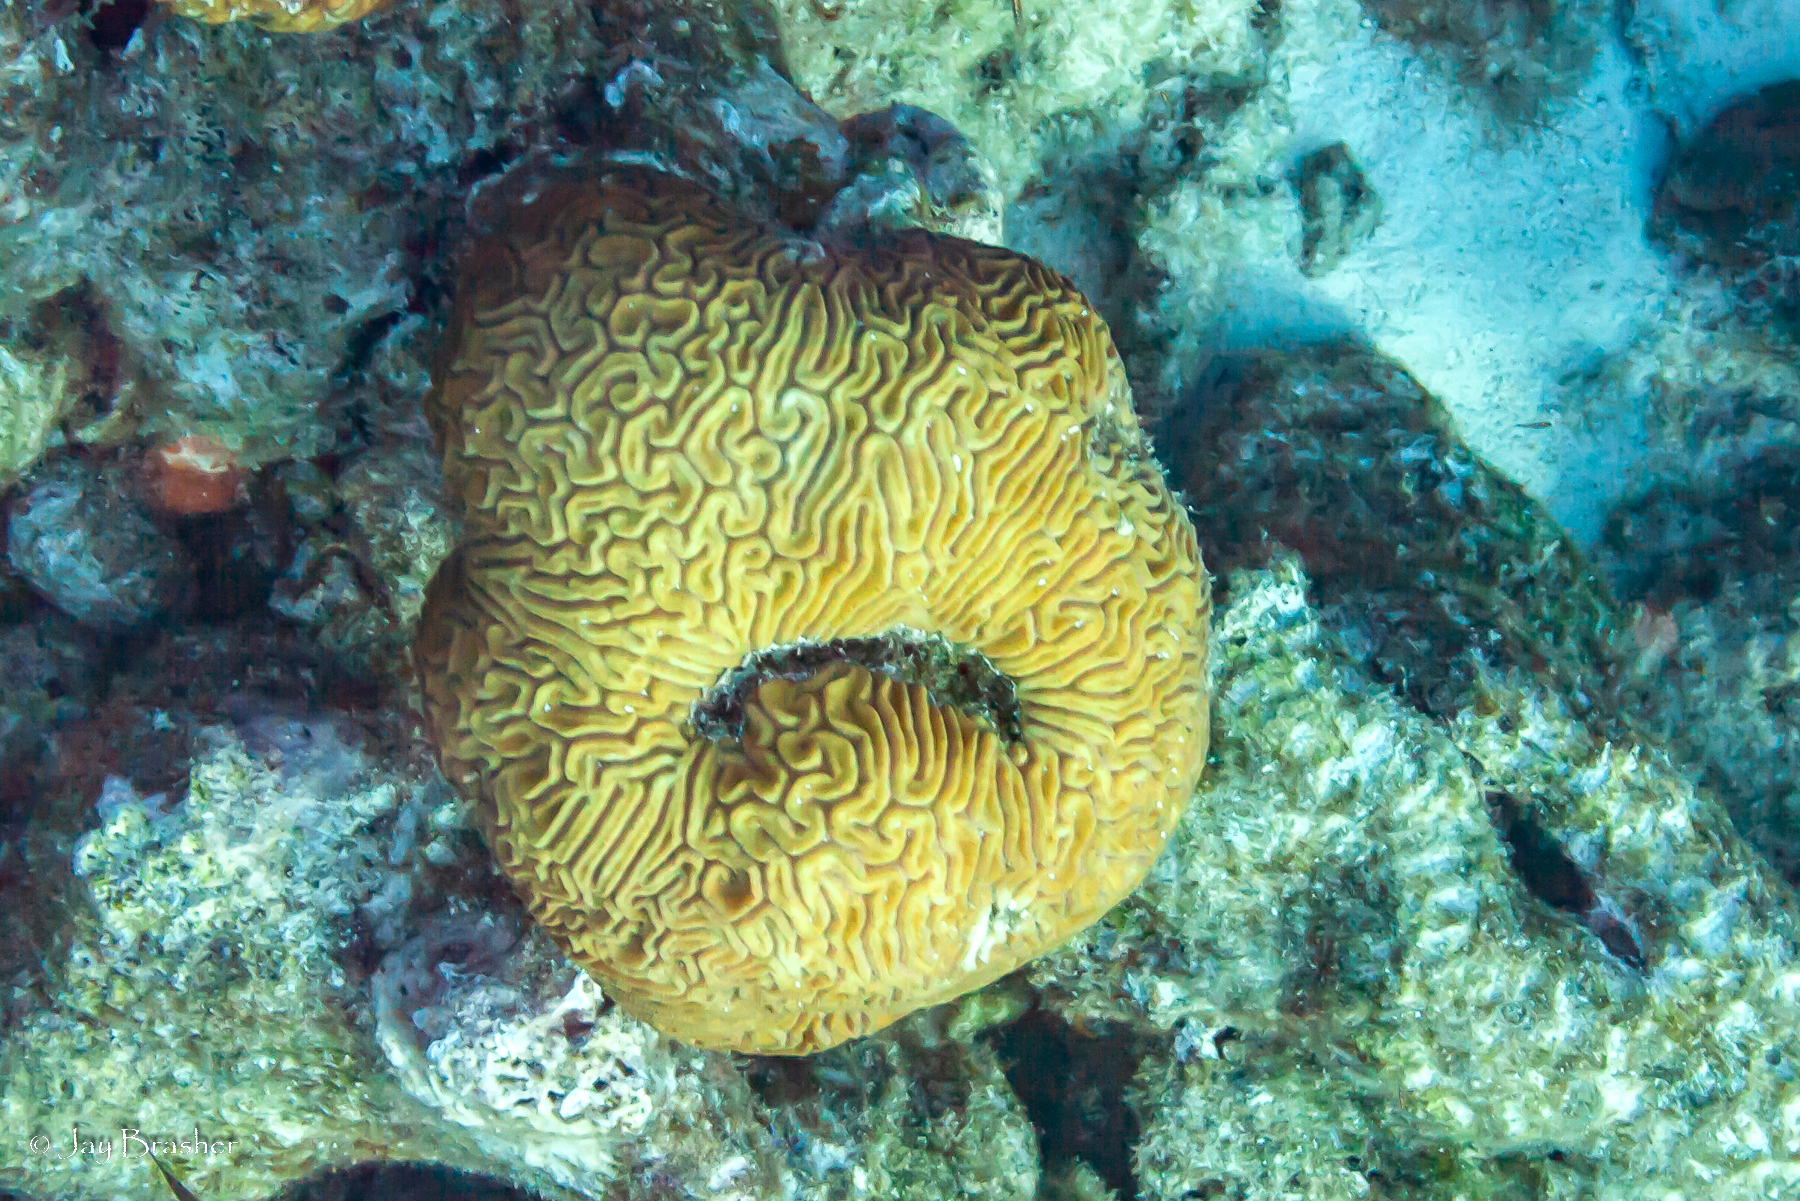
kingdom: Animalia
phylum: Cnidaria
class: Anthozoa
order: Scleractinia
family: Faviidae
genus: Diploria
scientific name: Diploria labyrinthiformis
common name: Grooved brain coral
